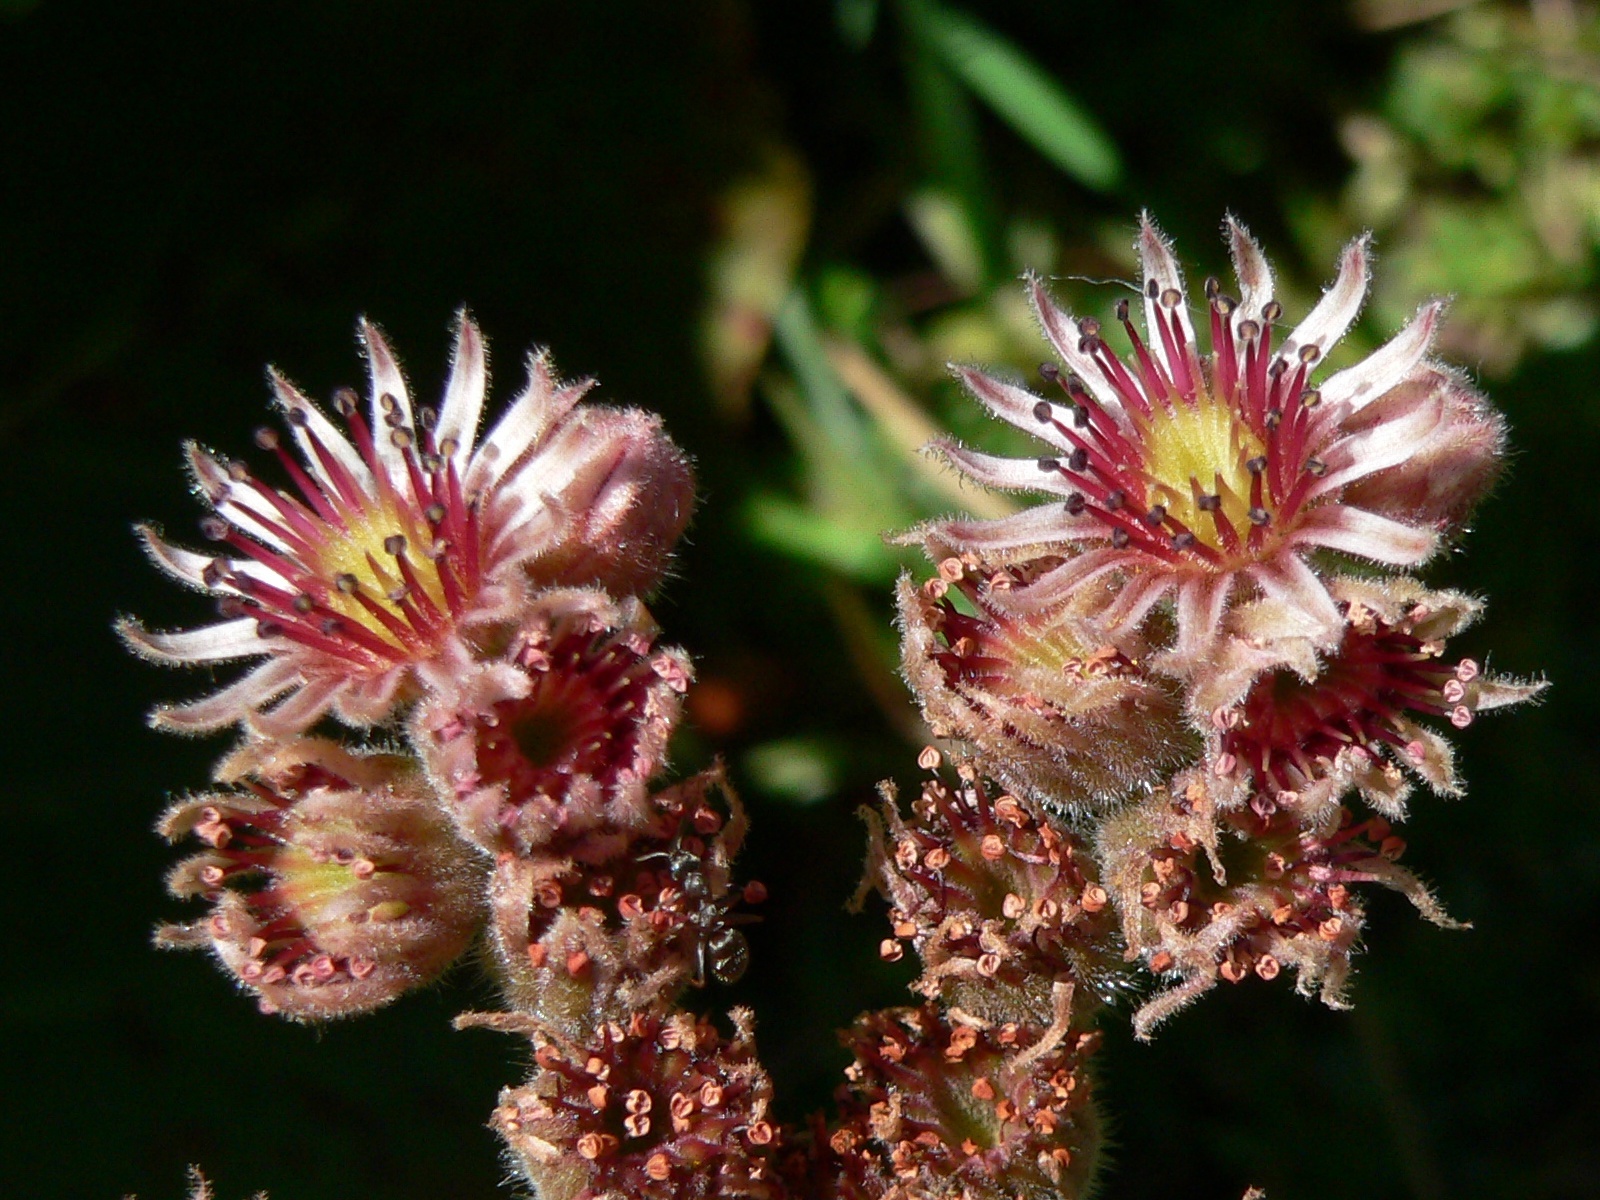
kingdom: Plantae
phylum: Tracheophyta
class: Magnoliopsida
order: Saxifragales
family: Crassulaceae
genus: Sempervivum
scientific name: Sempervivum tectorum
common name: House-leek
